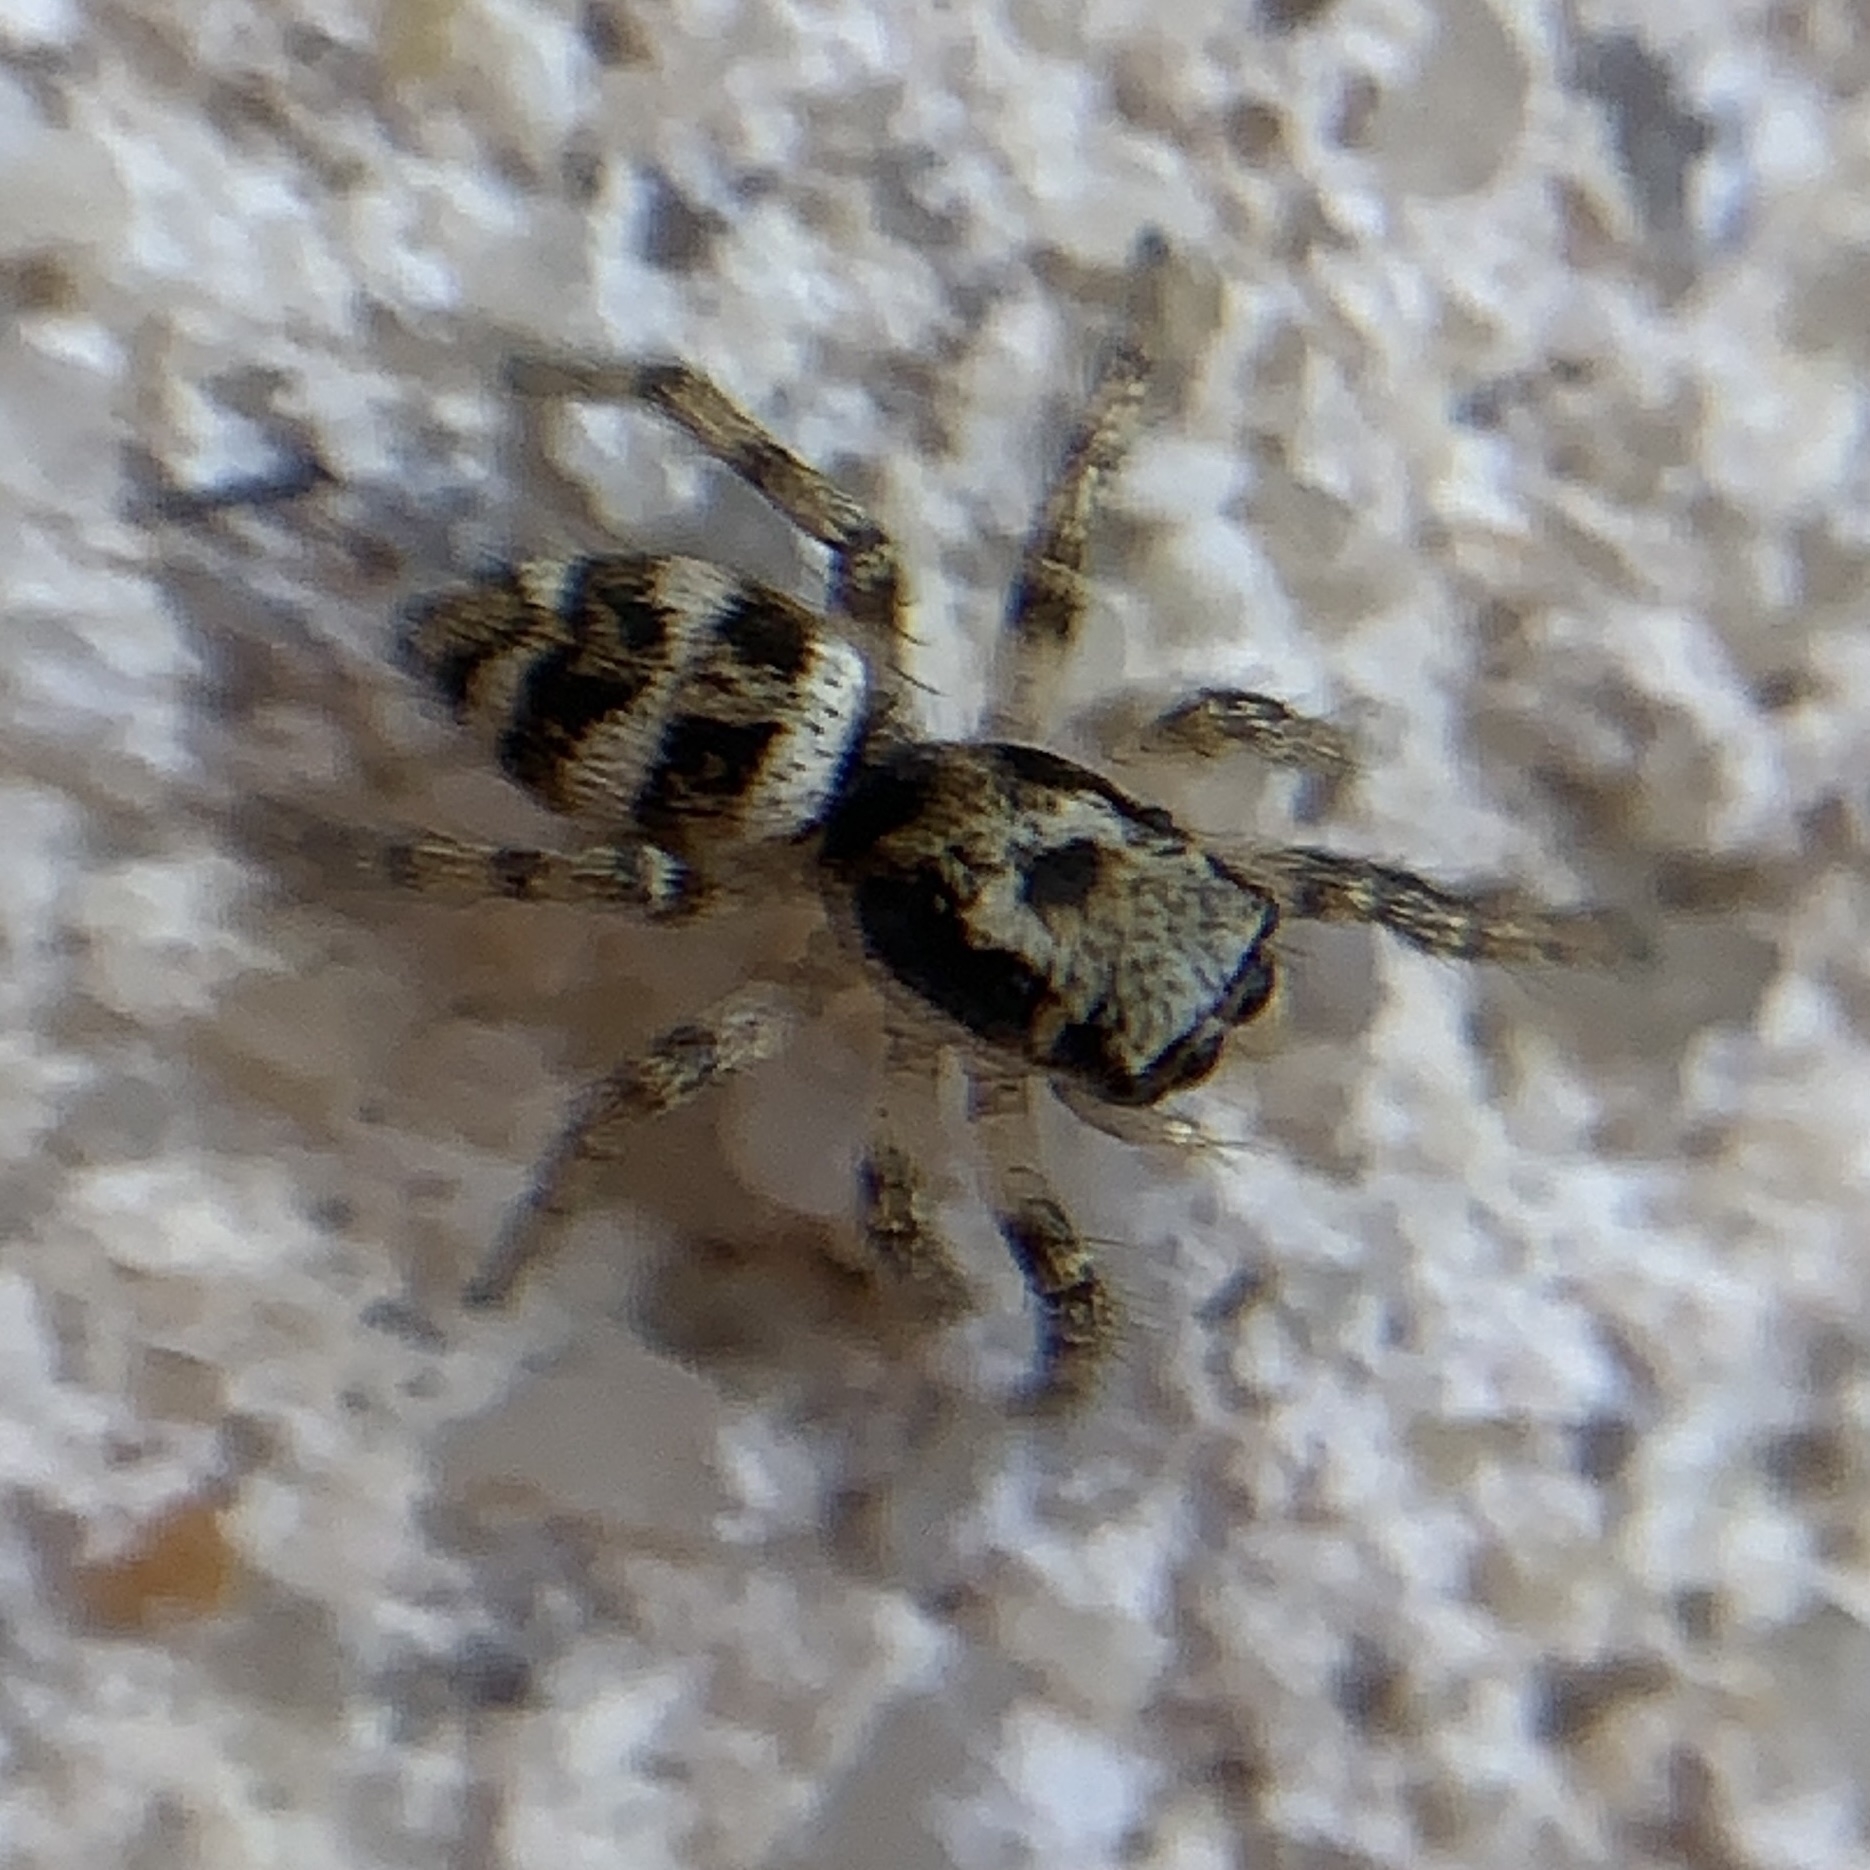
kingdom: Animalia
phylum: Arthropoda
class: Arachnida
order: Araneae
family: Salticidae
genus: Salticus
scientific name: Salticus scenicus
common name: Zebra jumper
